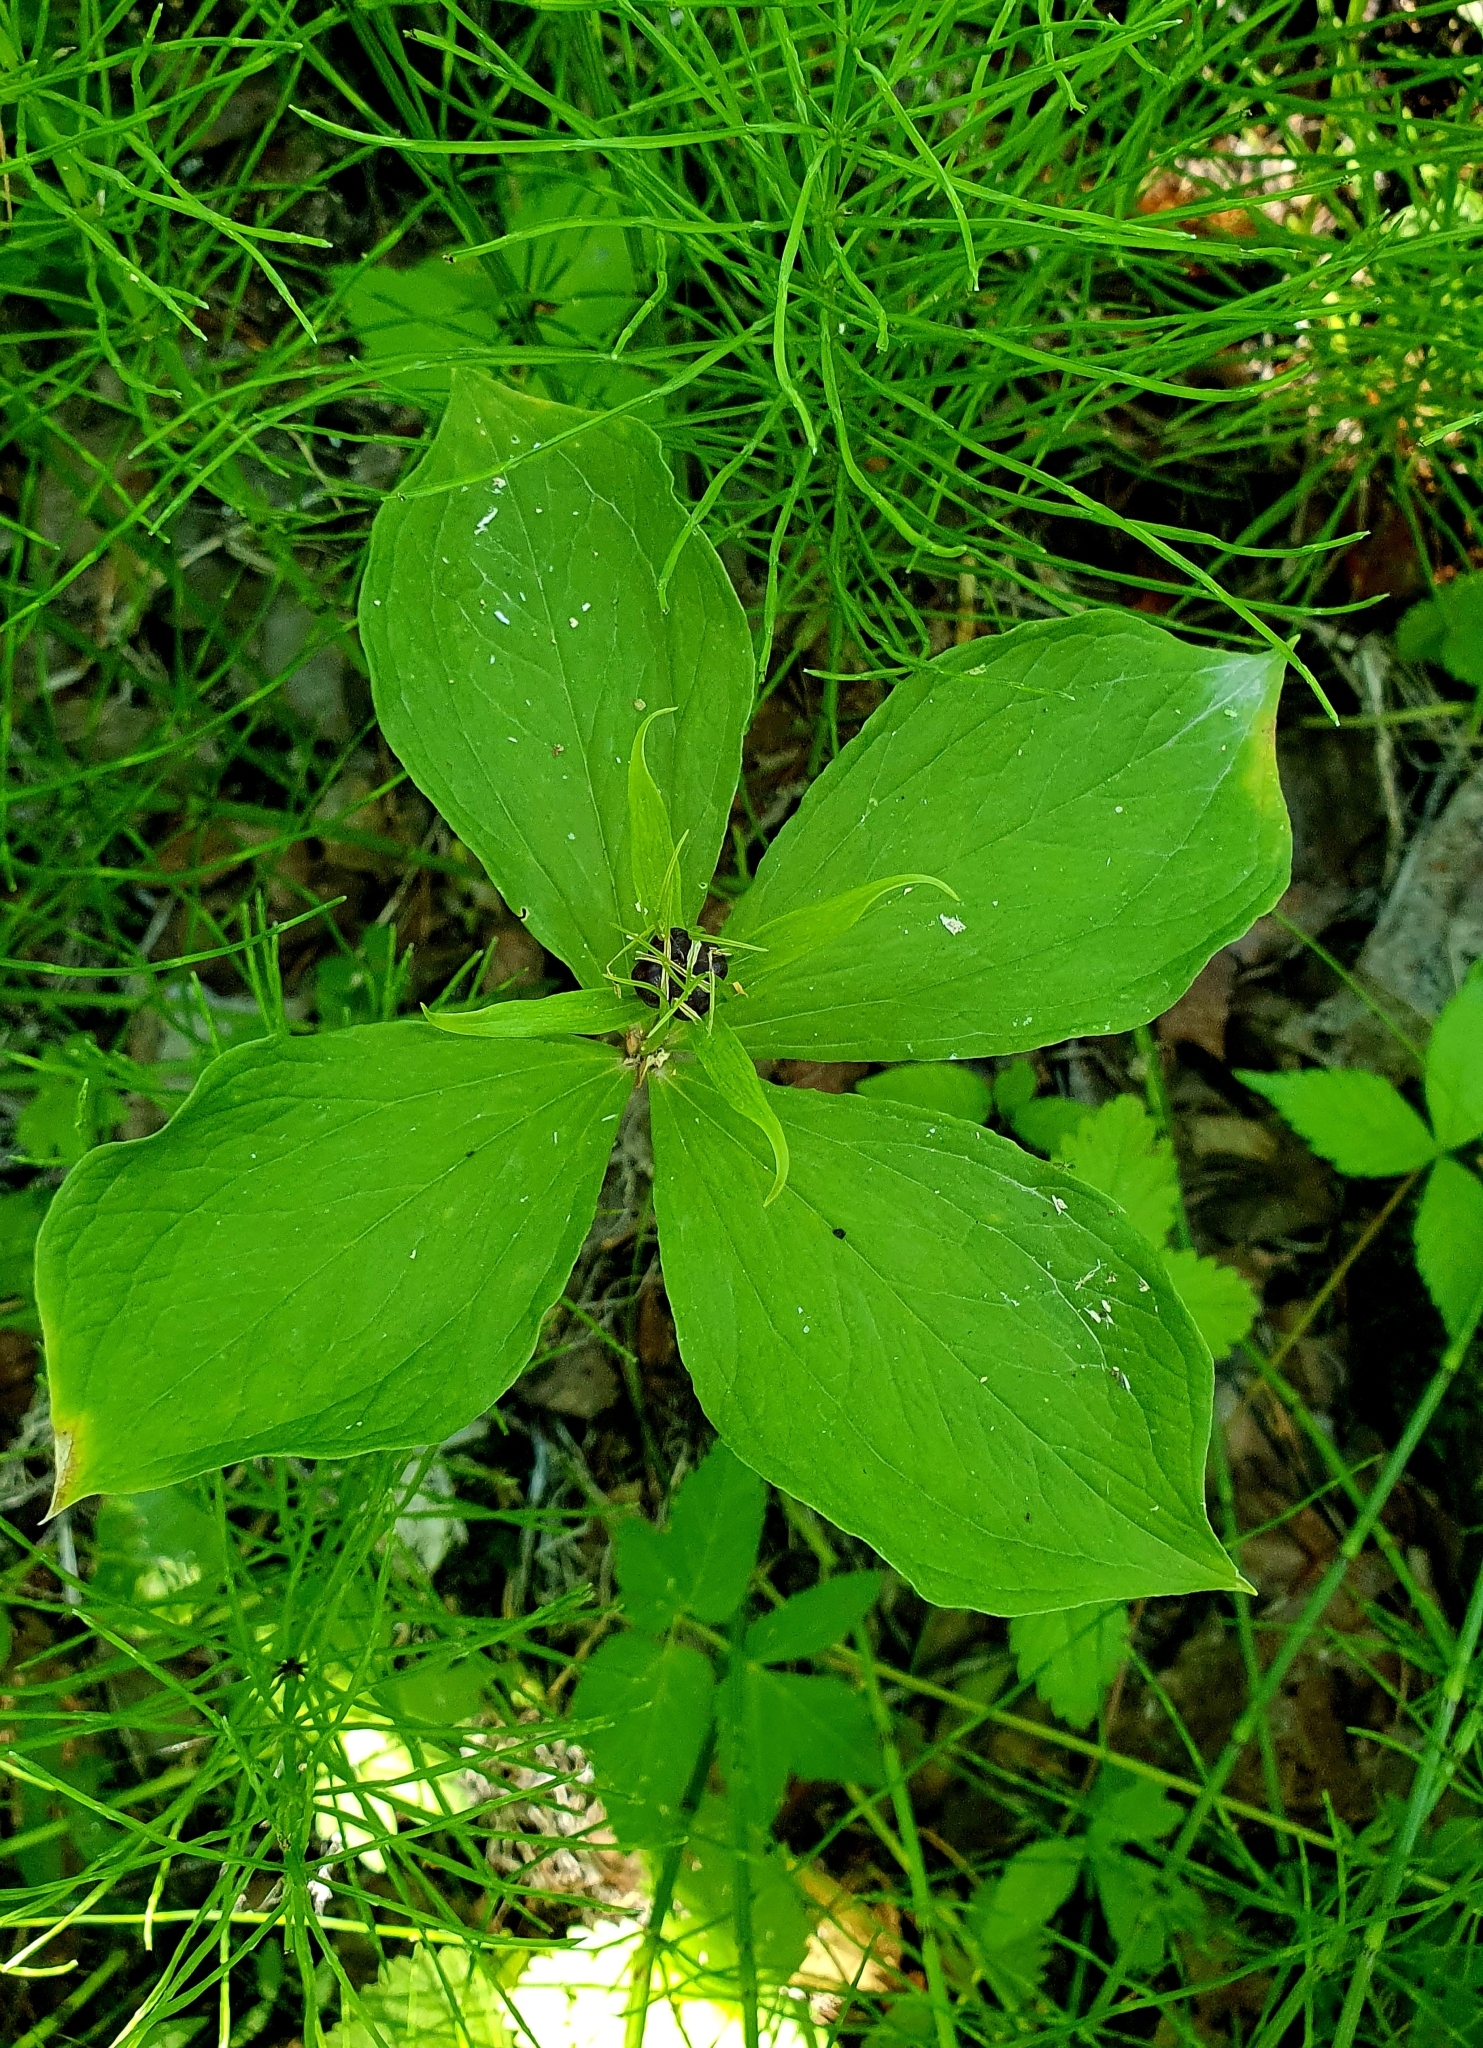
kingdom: Plantae
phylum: Tracheophyta
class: Liliopsida
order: Liliales
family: Melanthiaceae
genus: Paris
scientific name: Paris quadrifolia
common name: Herb-paris
